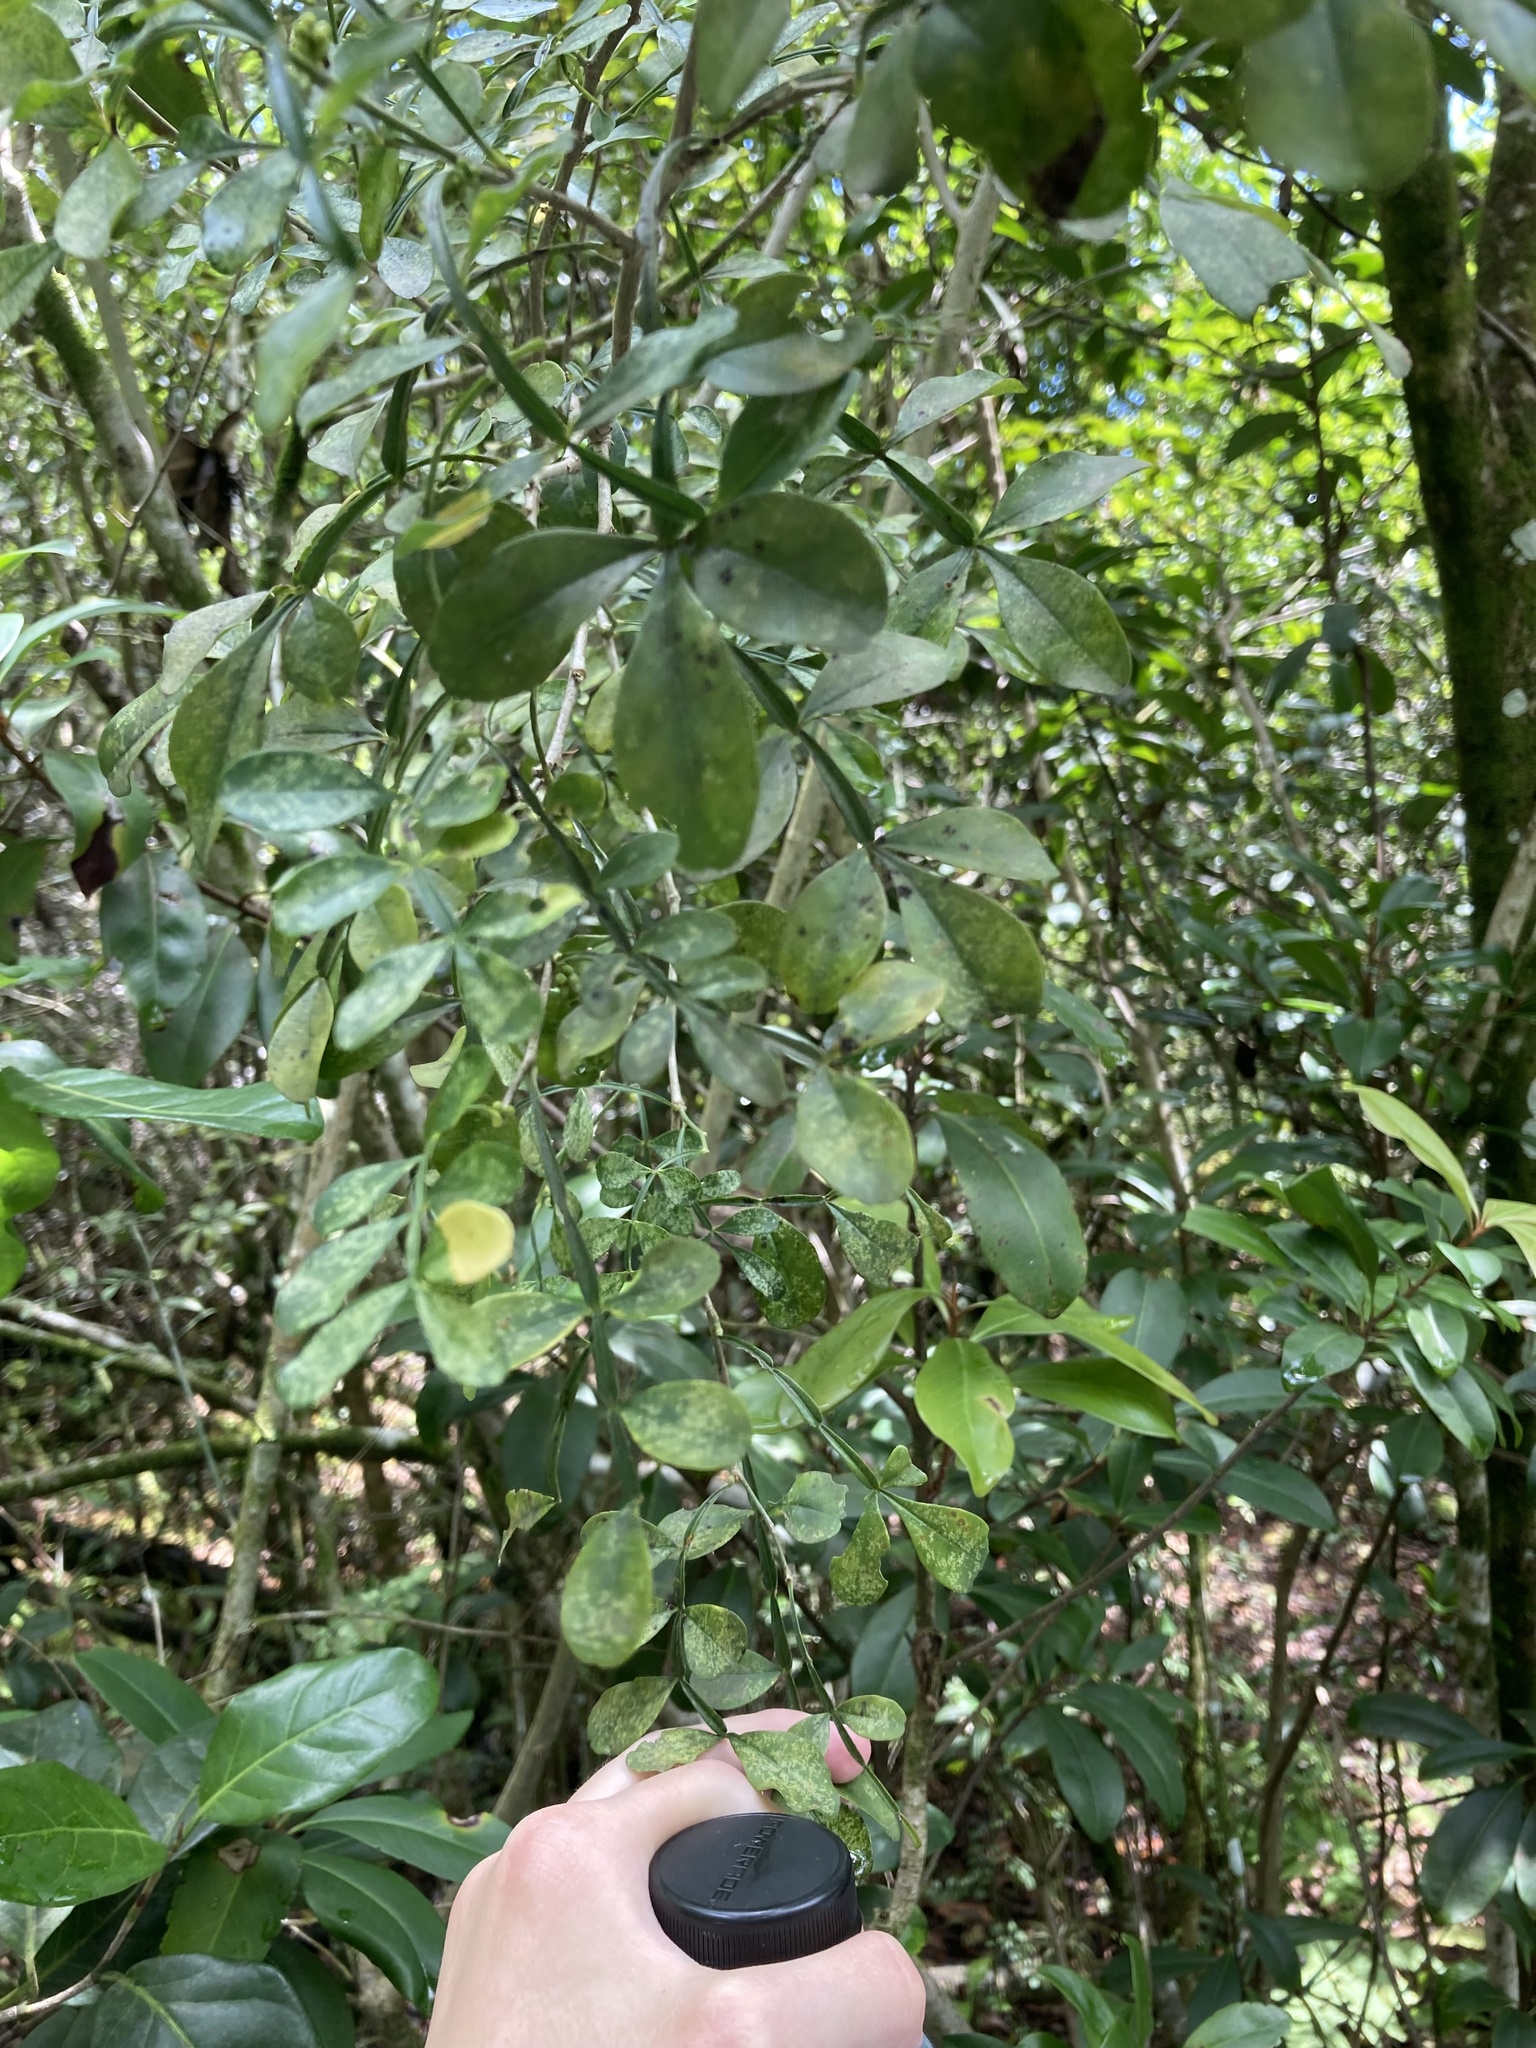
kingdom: Plantae
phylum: Tracheophyta
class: Magnoliopsida
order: Sapindales
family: Rutaceae
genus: Zanthoxylum
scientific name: Zanthoxylum fagara
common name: Lime prickly-ash
